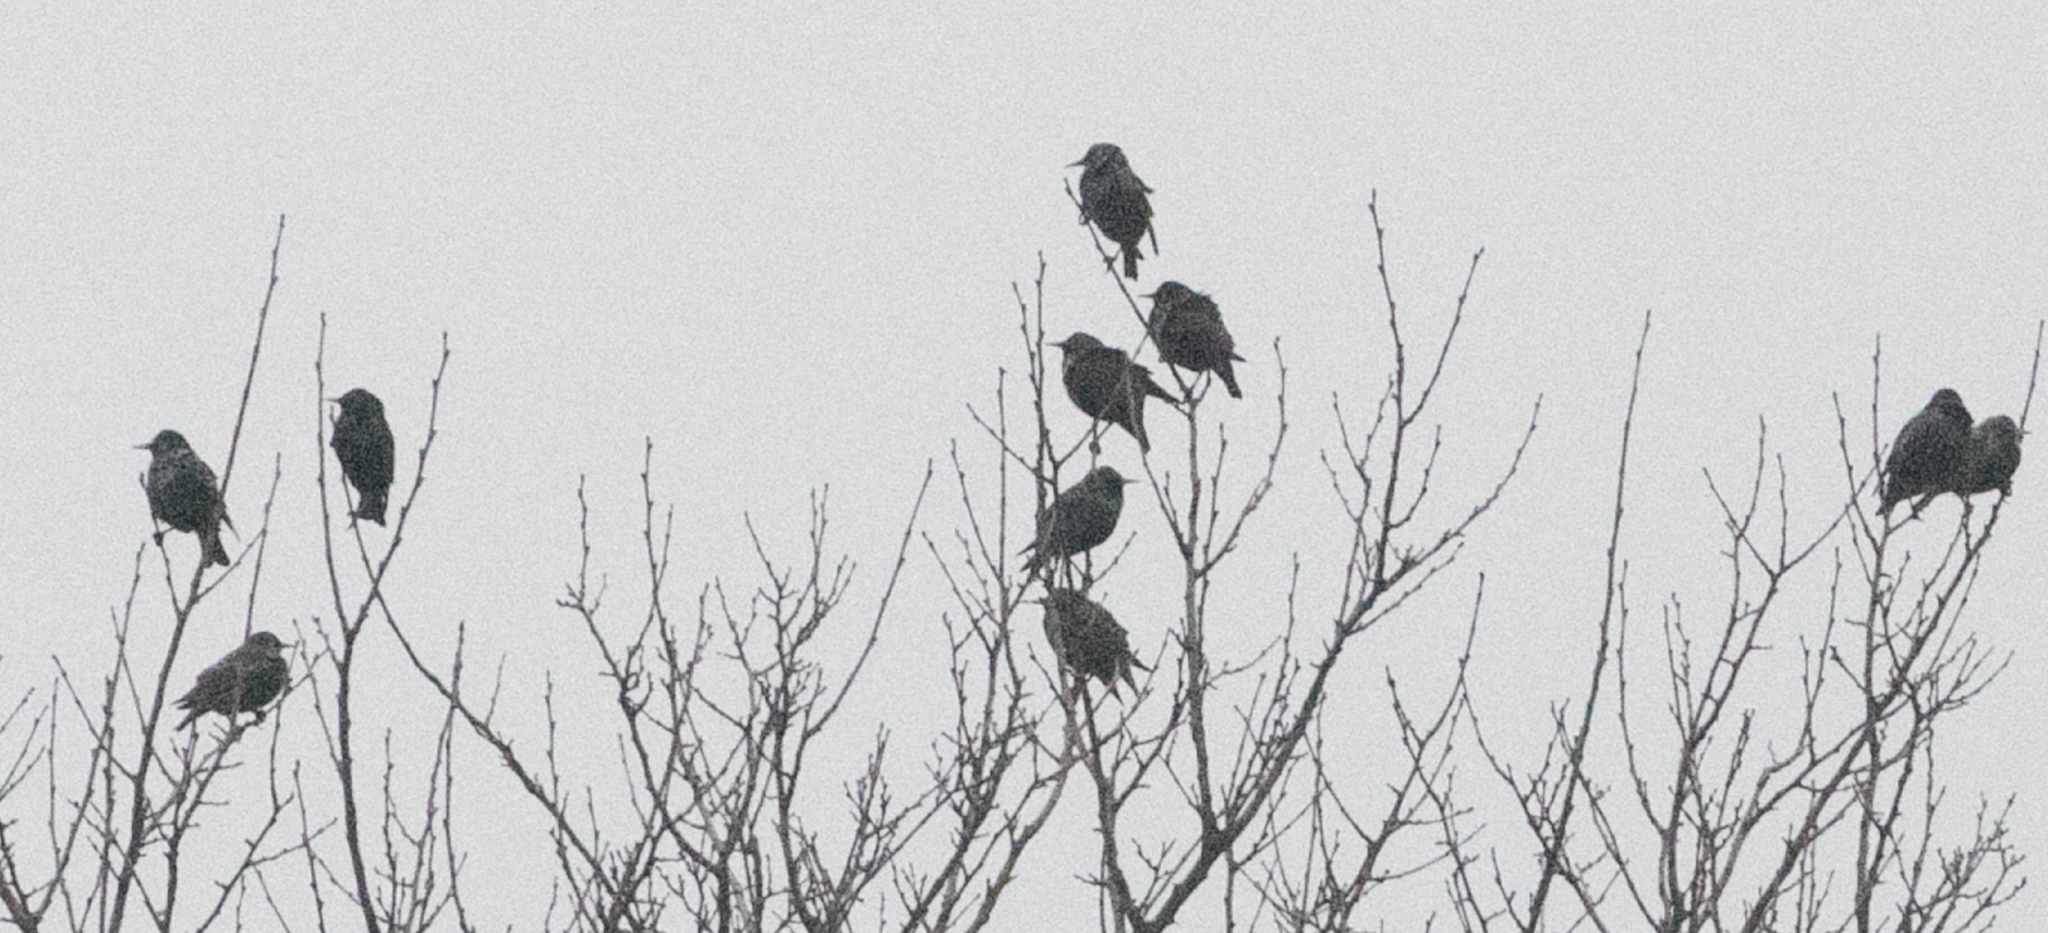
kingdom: Animalia
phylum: Chordata
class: Aves
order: Passeriformes
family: Sturnidae
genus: Sturnus
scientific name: Sturnus vulgaris
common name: Common starling
